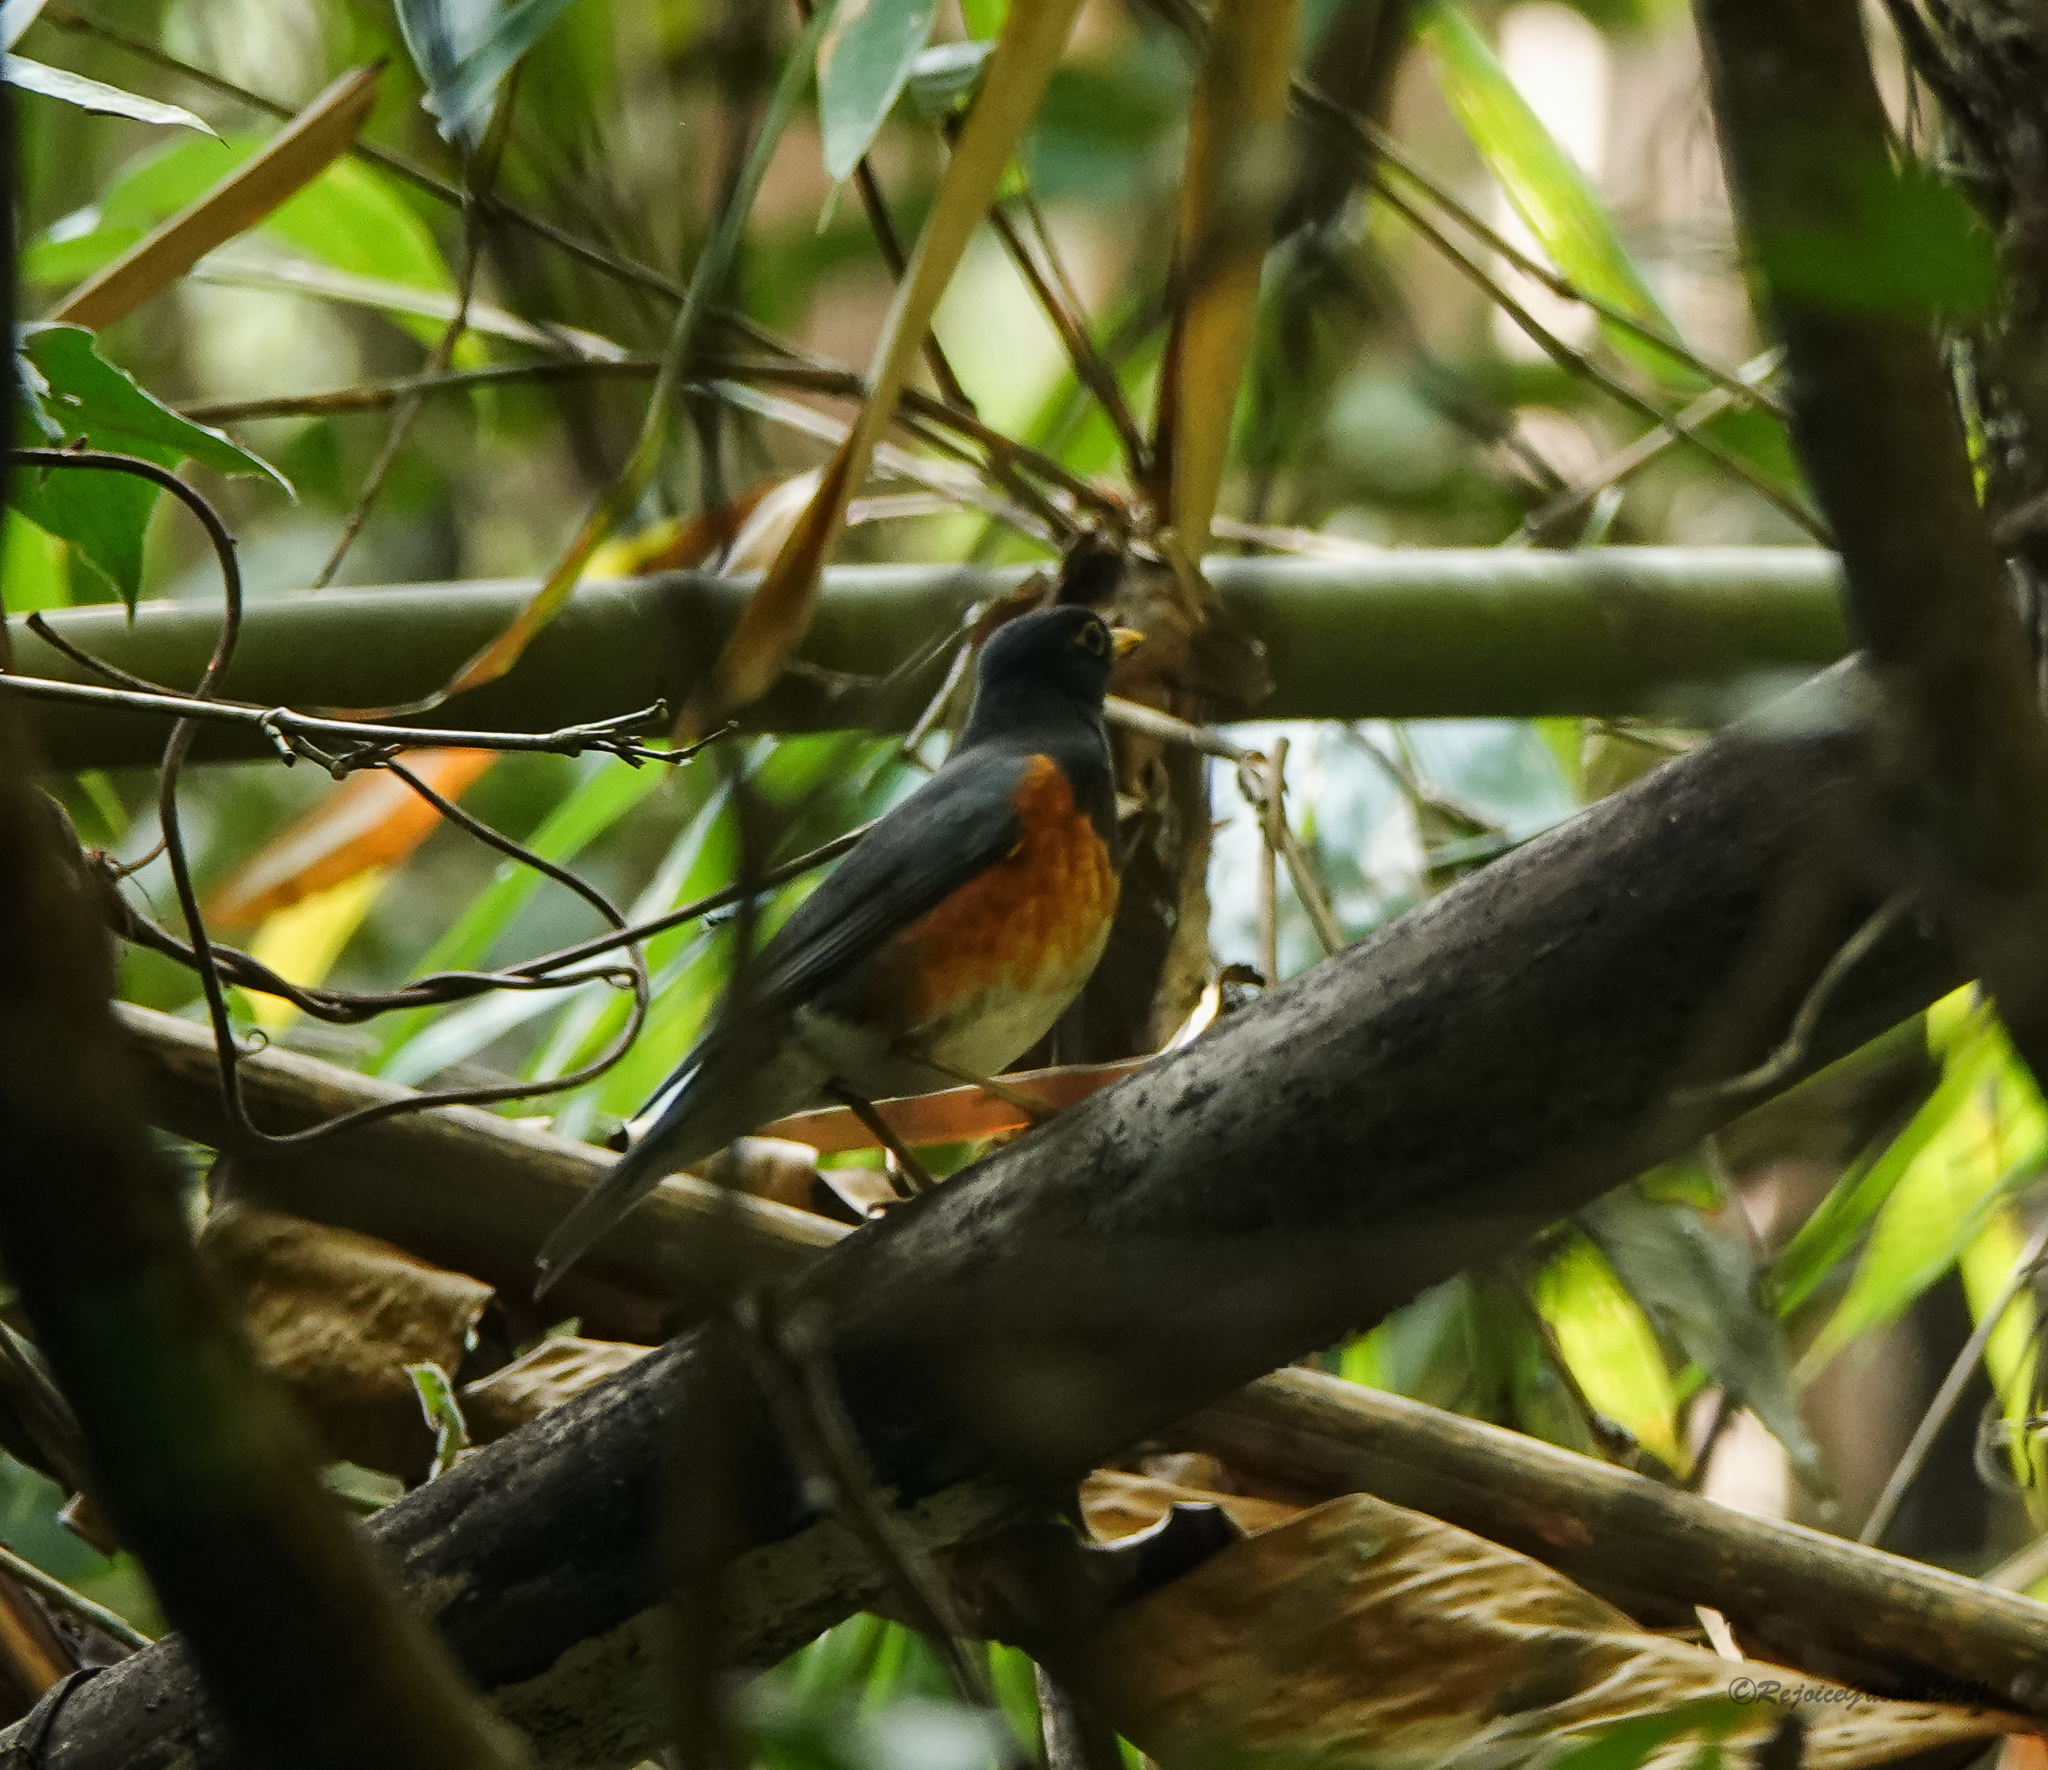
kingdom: Animalia
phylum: Chordata
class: Aves
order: Passeriformes
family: Turdidae
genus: Turdus
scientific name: Turdus dissimilis
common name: Black-breasted thrush
